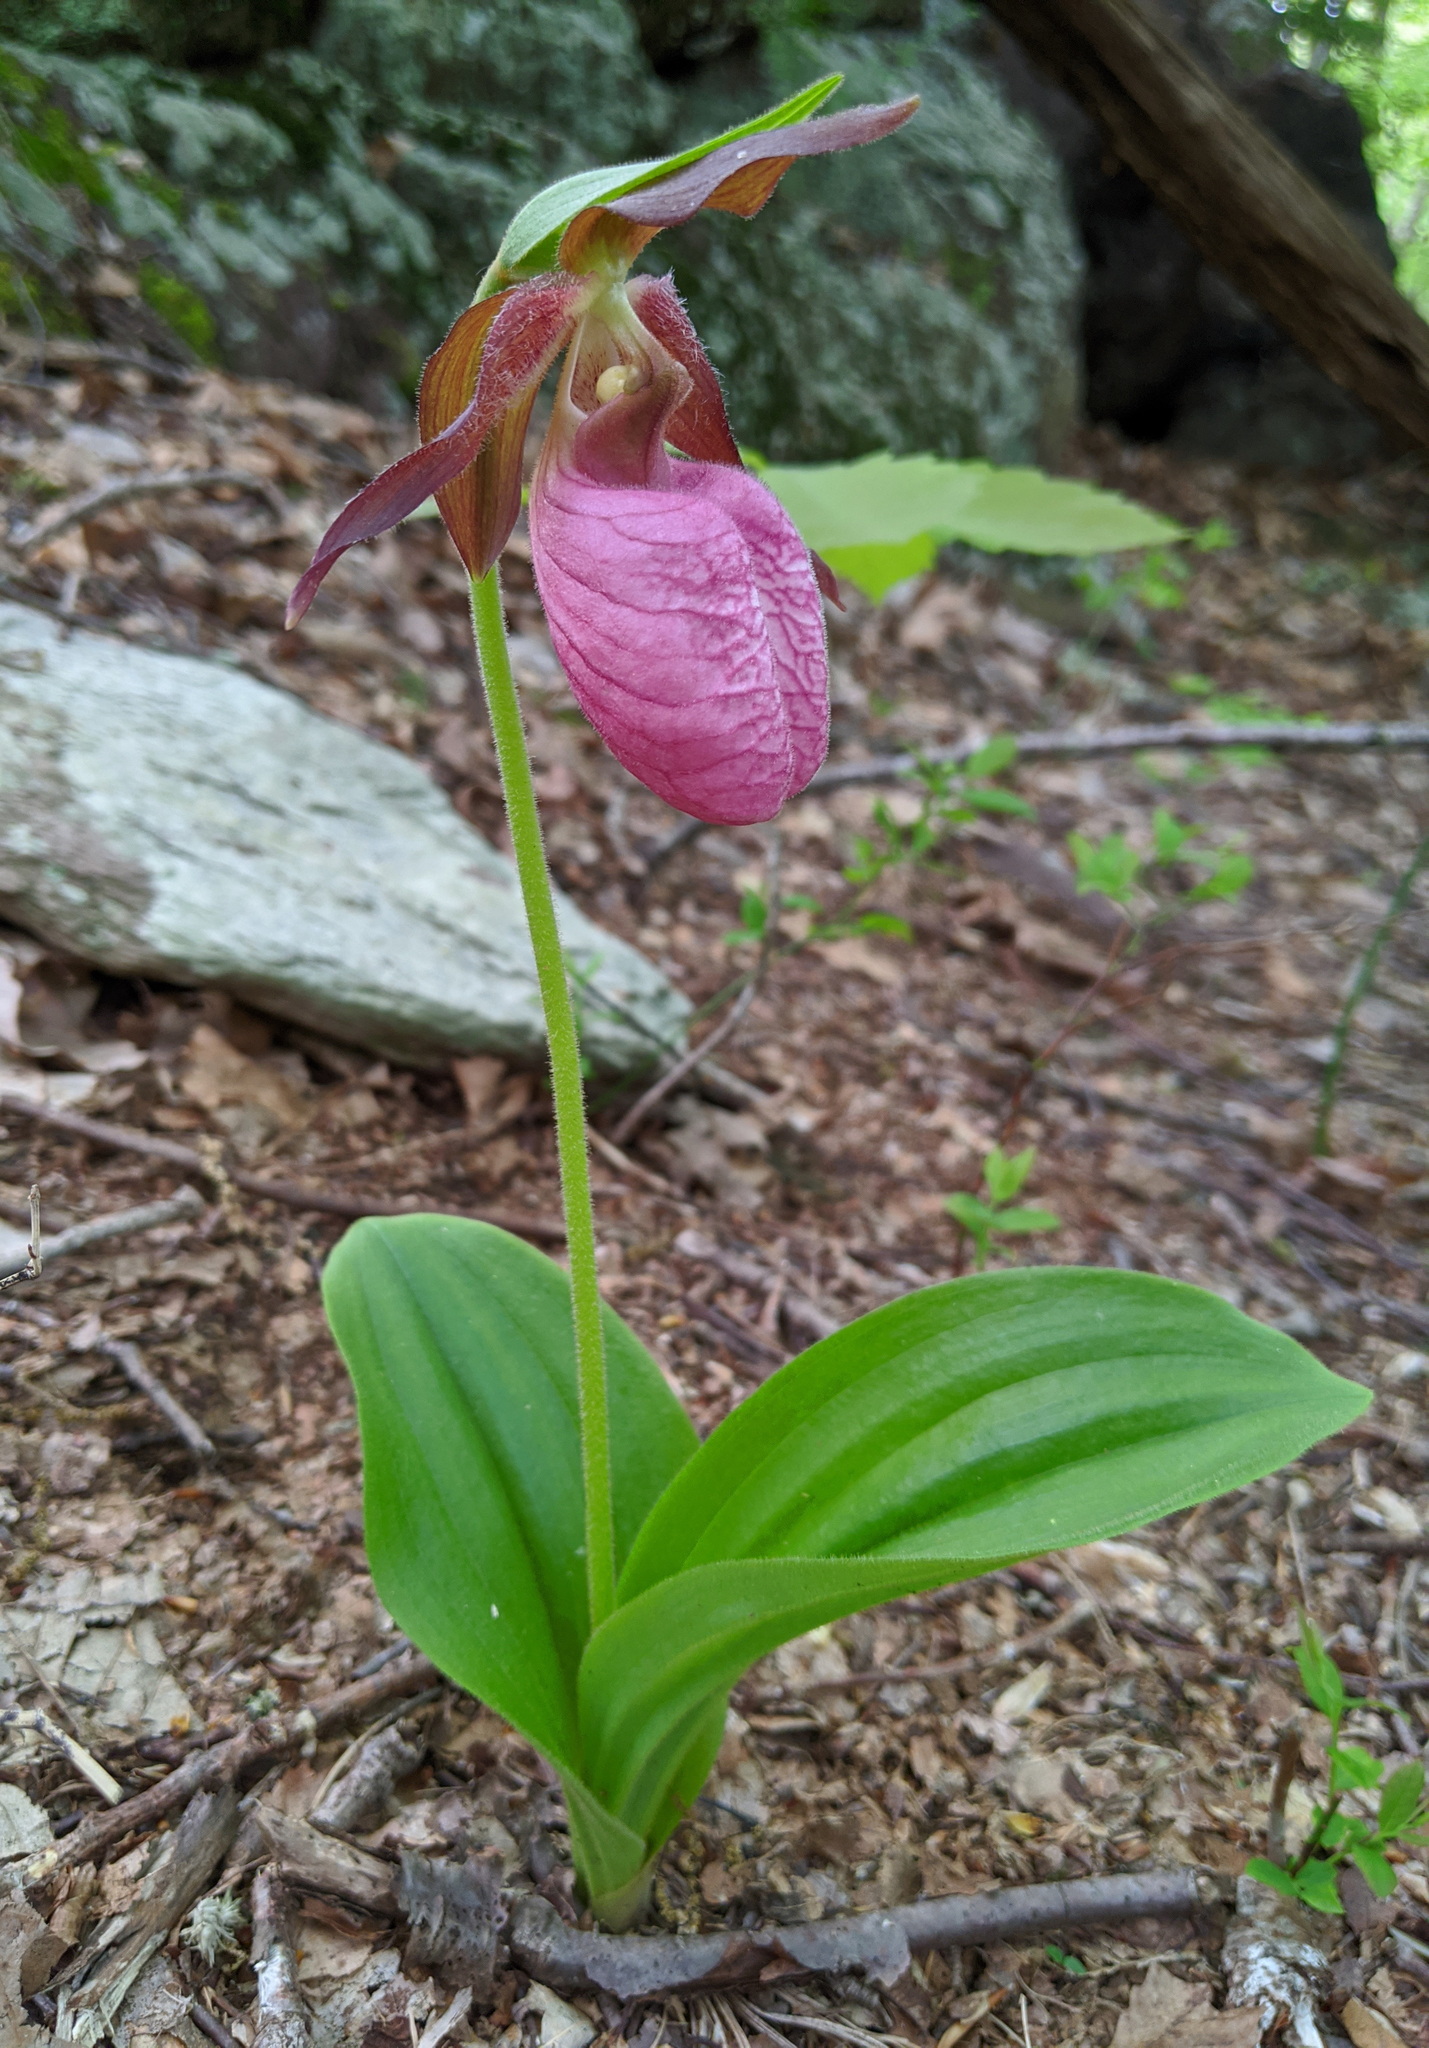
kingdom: Plantae
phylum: Tracheophyta
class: Liliopsida
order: Asparagales
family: Orchidaceae
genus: Cypripedium
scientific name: Cypripedium acaule
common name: Pink lady's-slipper
